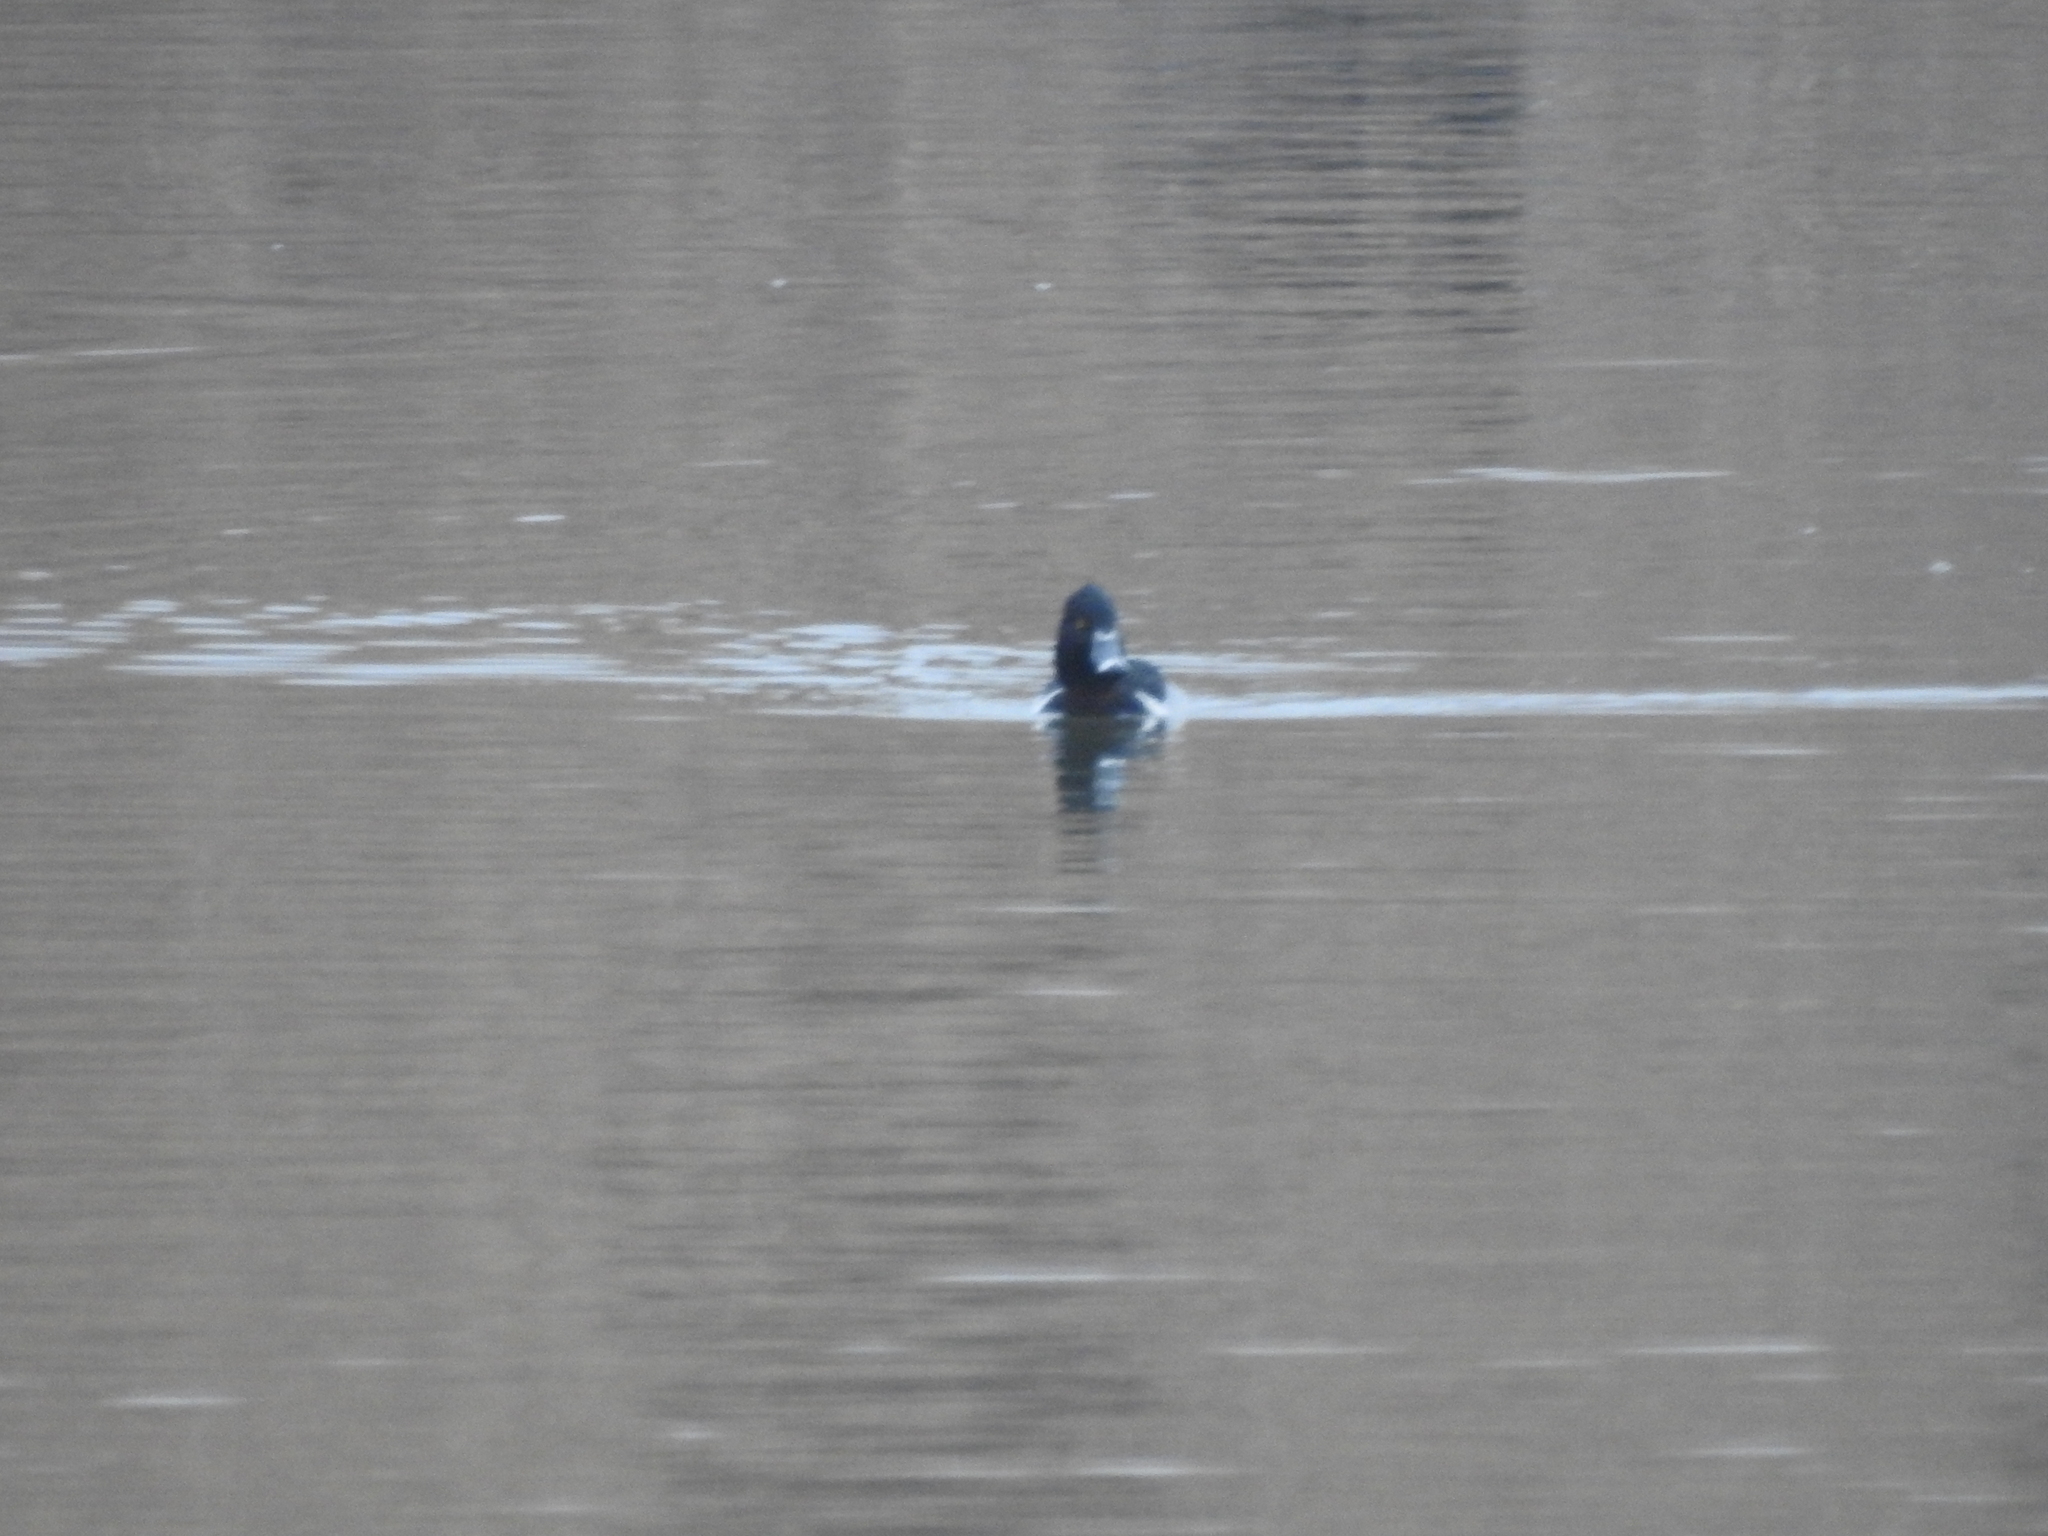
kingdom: Animalia
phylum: Chordata
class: Aves
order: Anseriformes
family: Anatidae
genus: Aythya
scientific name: Aythya collaris
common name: Ring-necked duck
